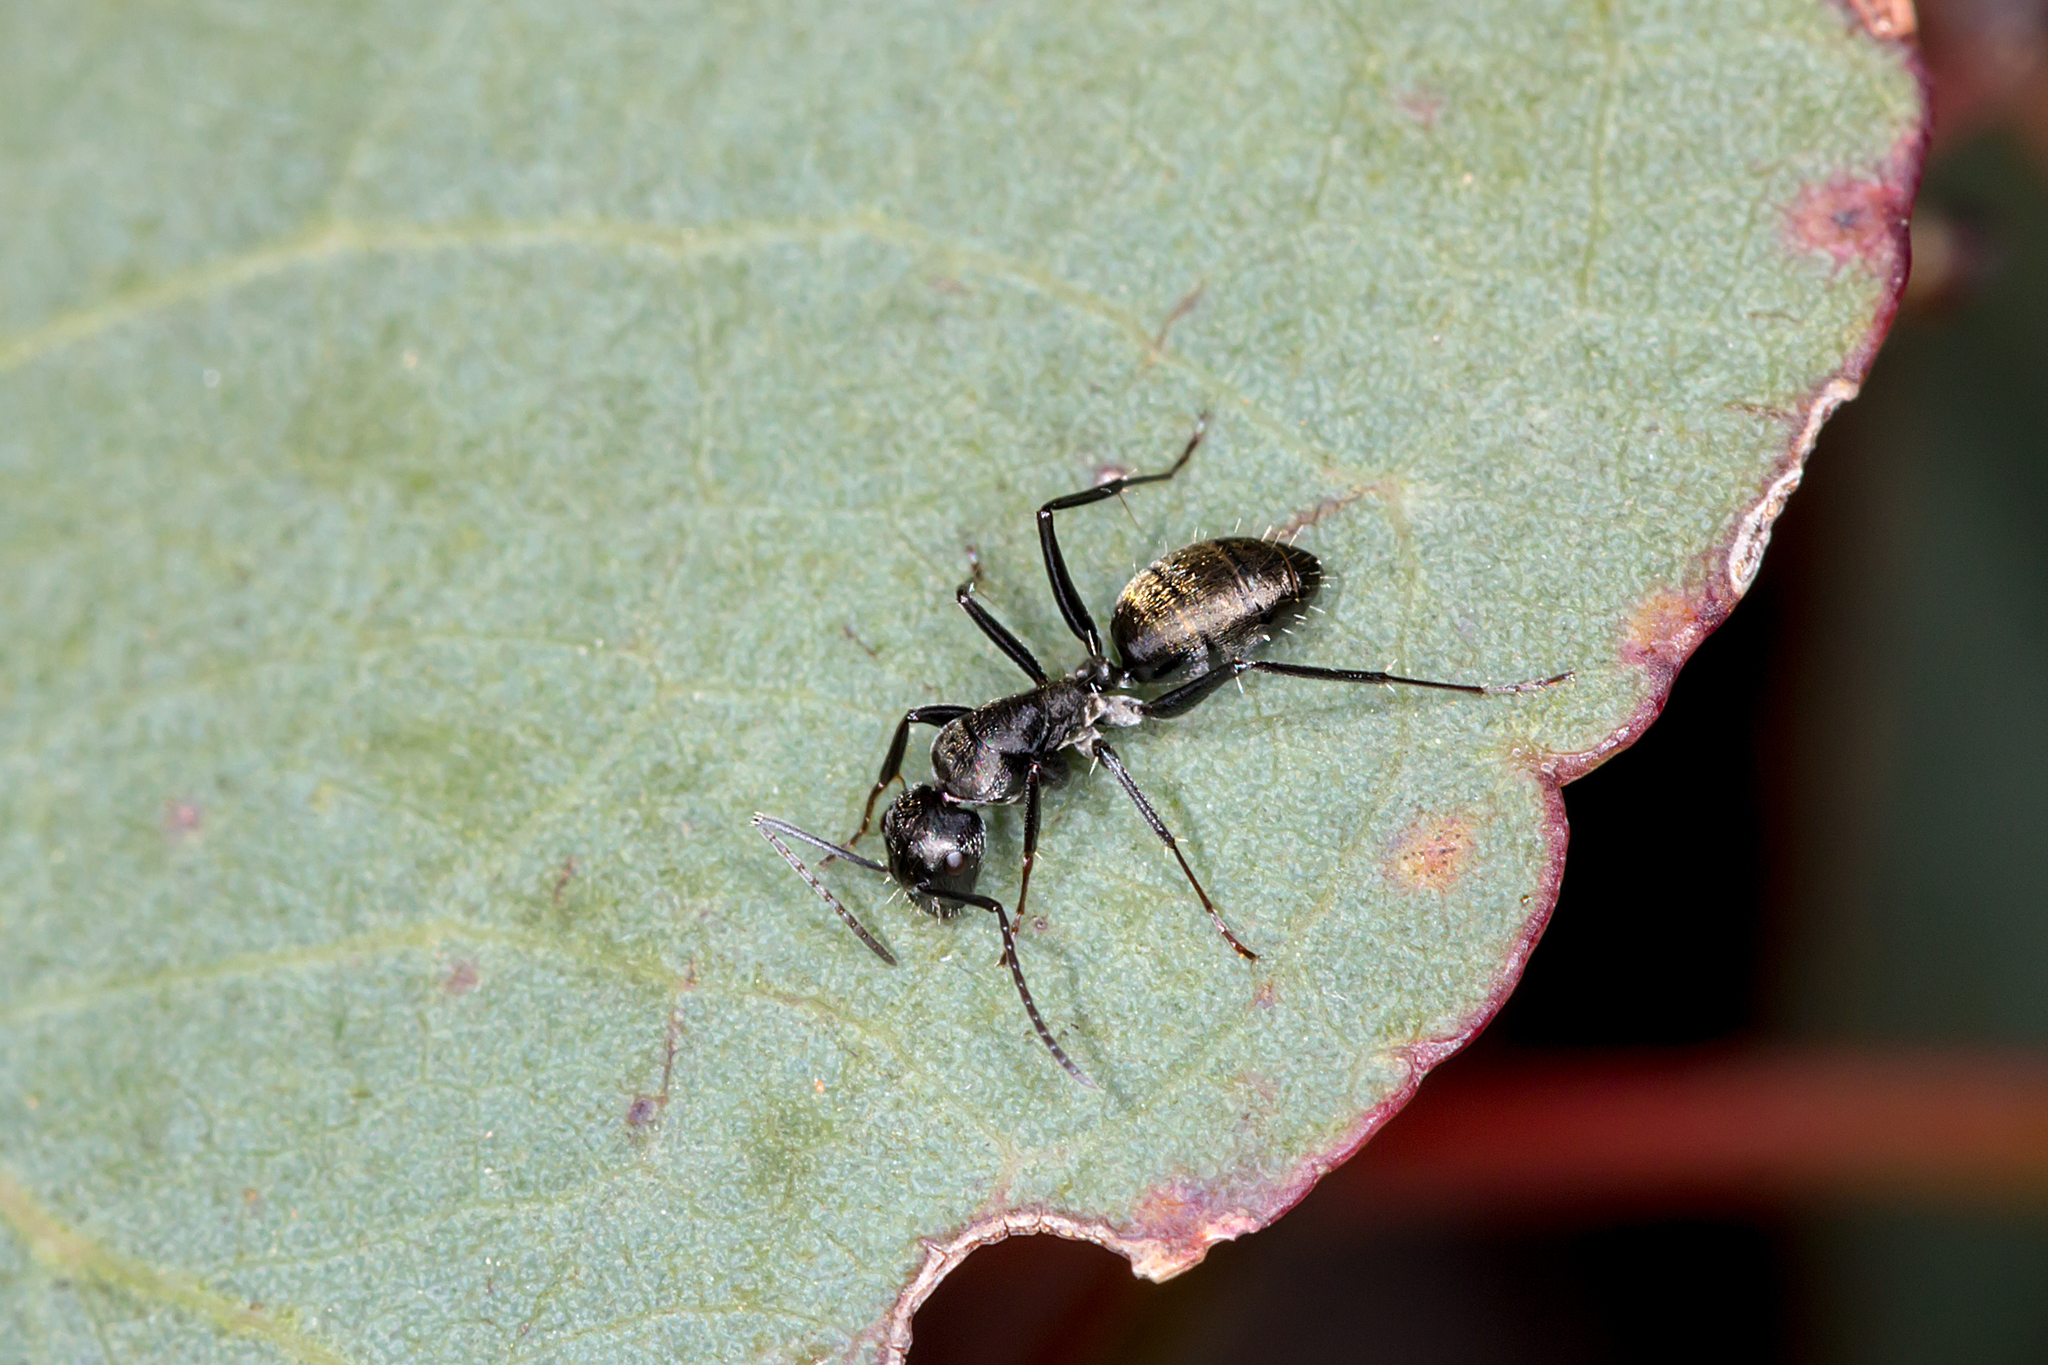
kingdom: Animalia
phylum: Arthropoda
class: Insecta
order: Hymenoptera
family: Formicidae
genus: Camponotus
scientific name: Camponotus aeneopilosus
